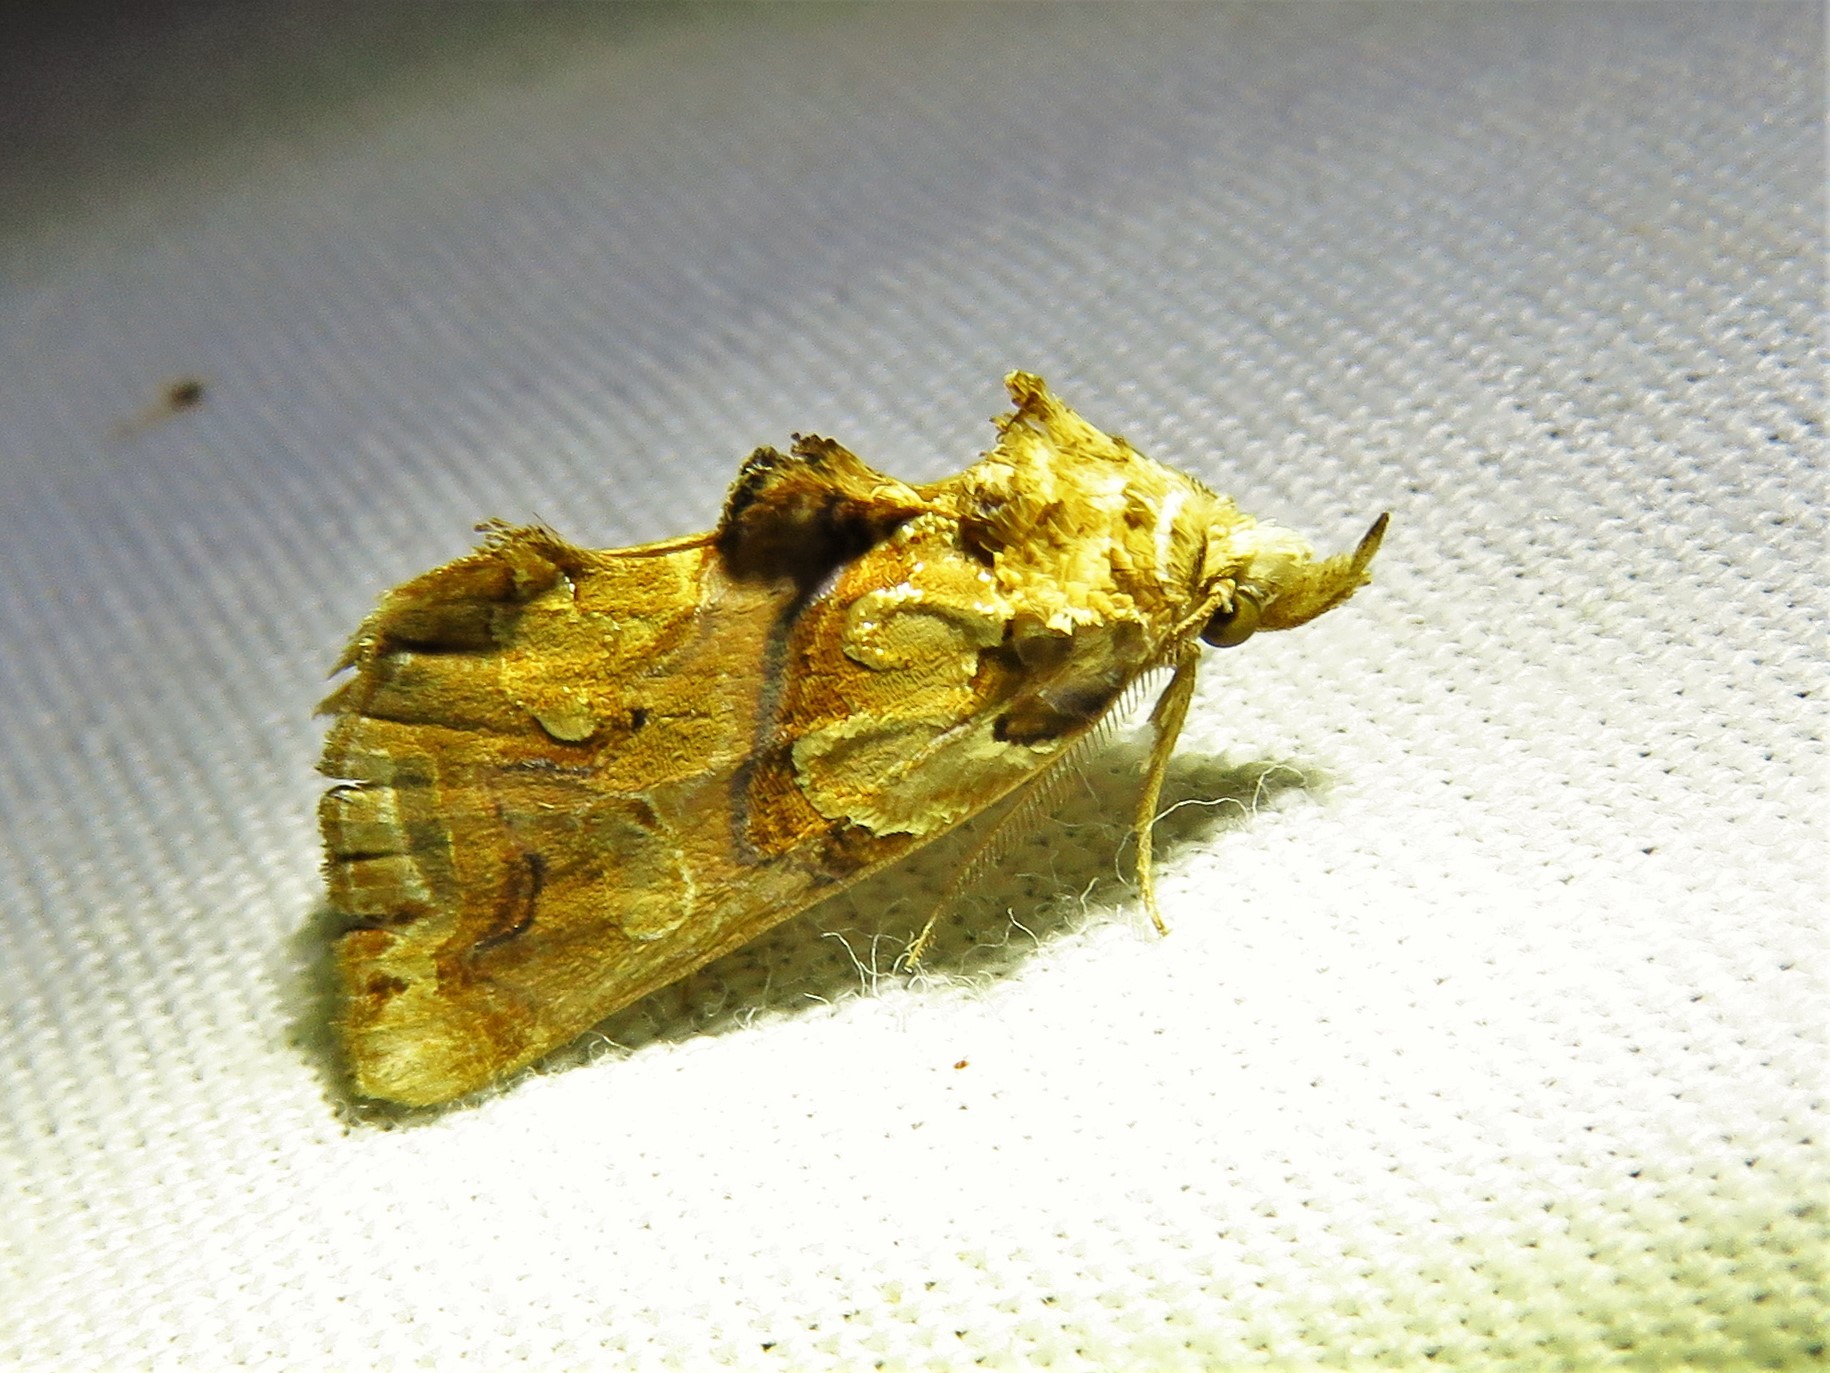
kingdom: Animalia
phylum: Arthropoda
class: Insecta
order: Lepidoptera
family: Erebidae
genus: Plusiodonta
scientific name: Plusiodonta compressipalpis
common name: Moonseed moth
